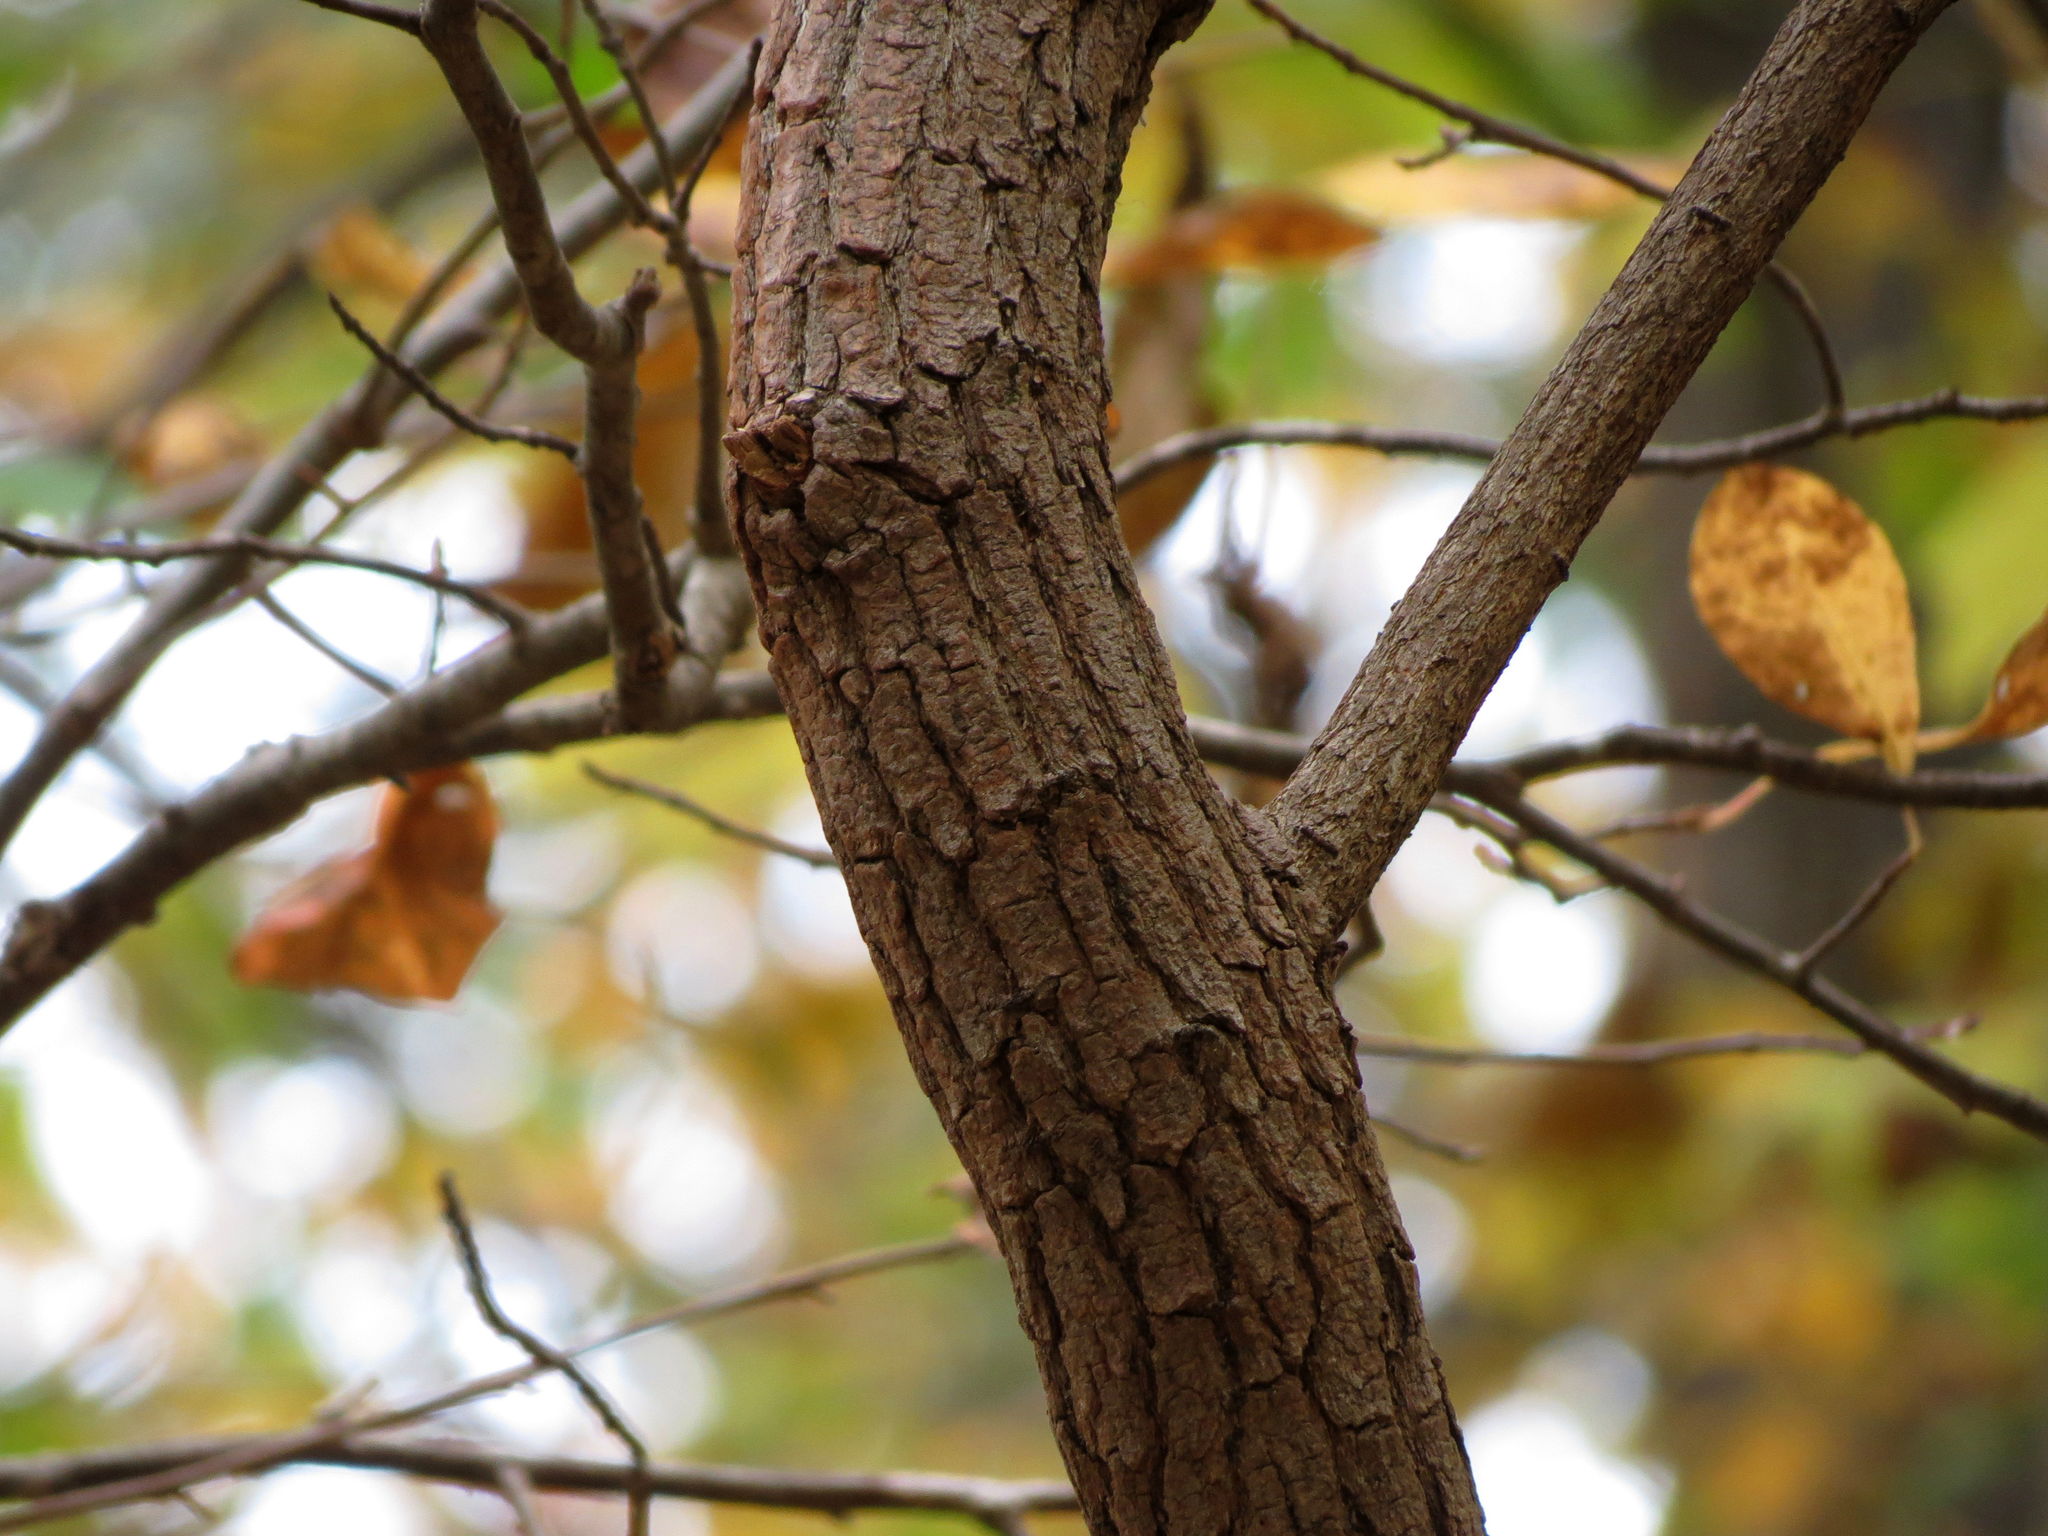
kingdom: Plantae
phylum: Tracheophyta
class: Magnoliopsida
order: Laurales
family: Lauraceae
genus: Sassafras
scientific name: Sassafras albidum
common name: Sassafras
